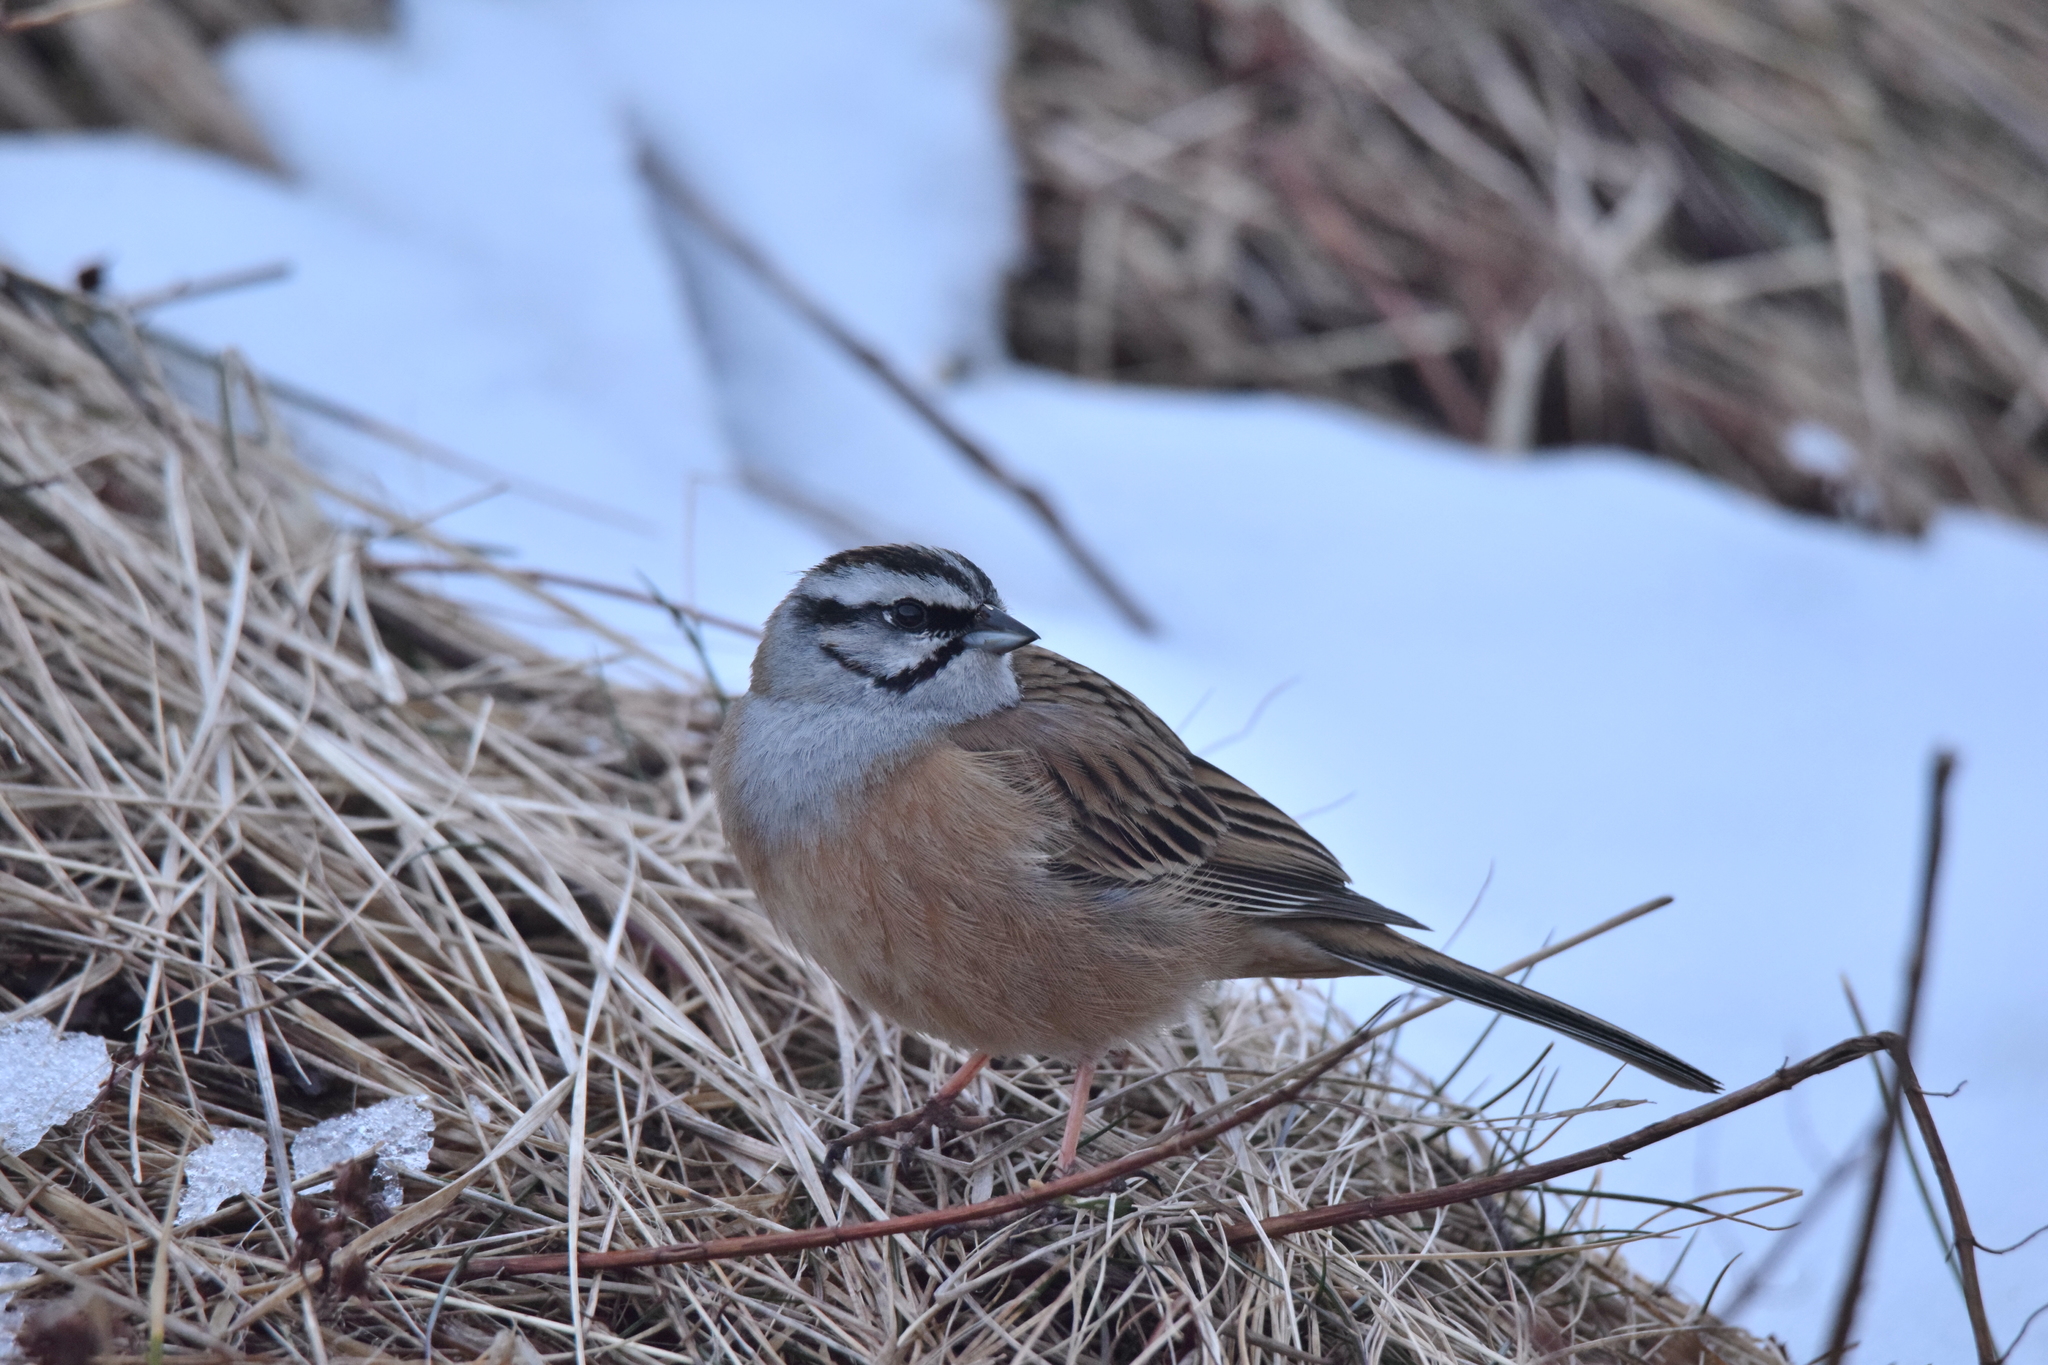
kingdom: Animalia
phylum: Chordata
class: Aves
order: Passeriformes
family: Emberizidae
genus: Emberiza
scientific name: Emberiza cia
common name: Rock bunting
